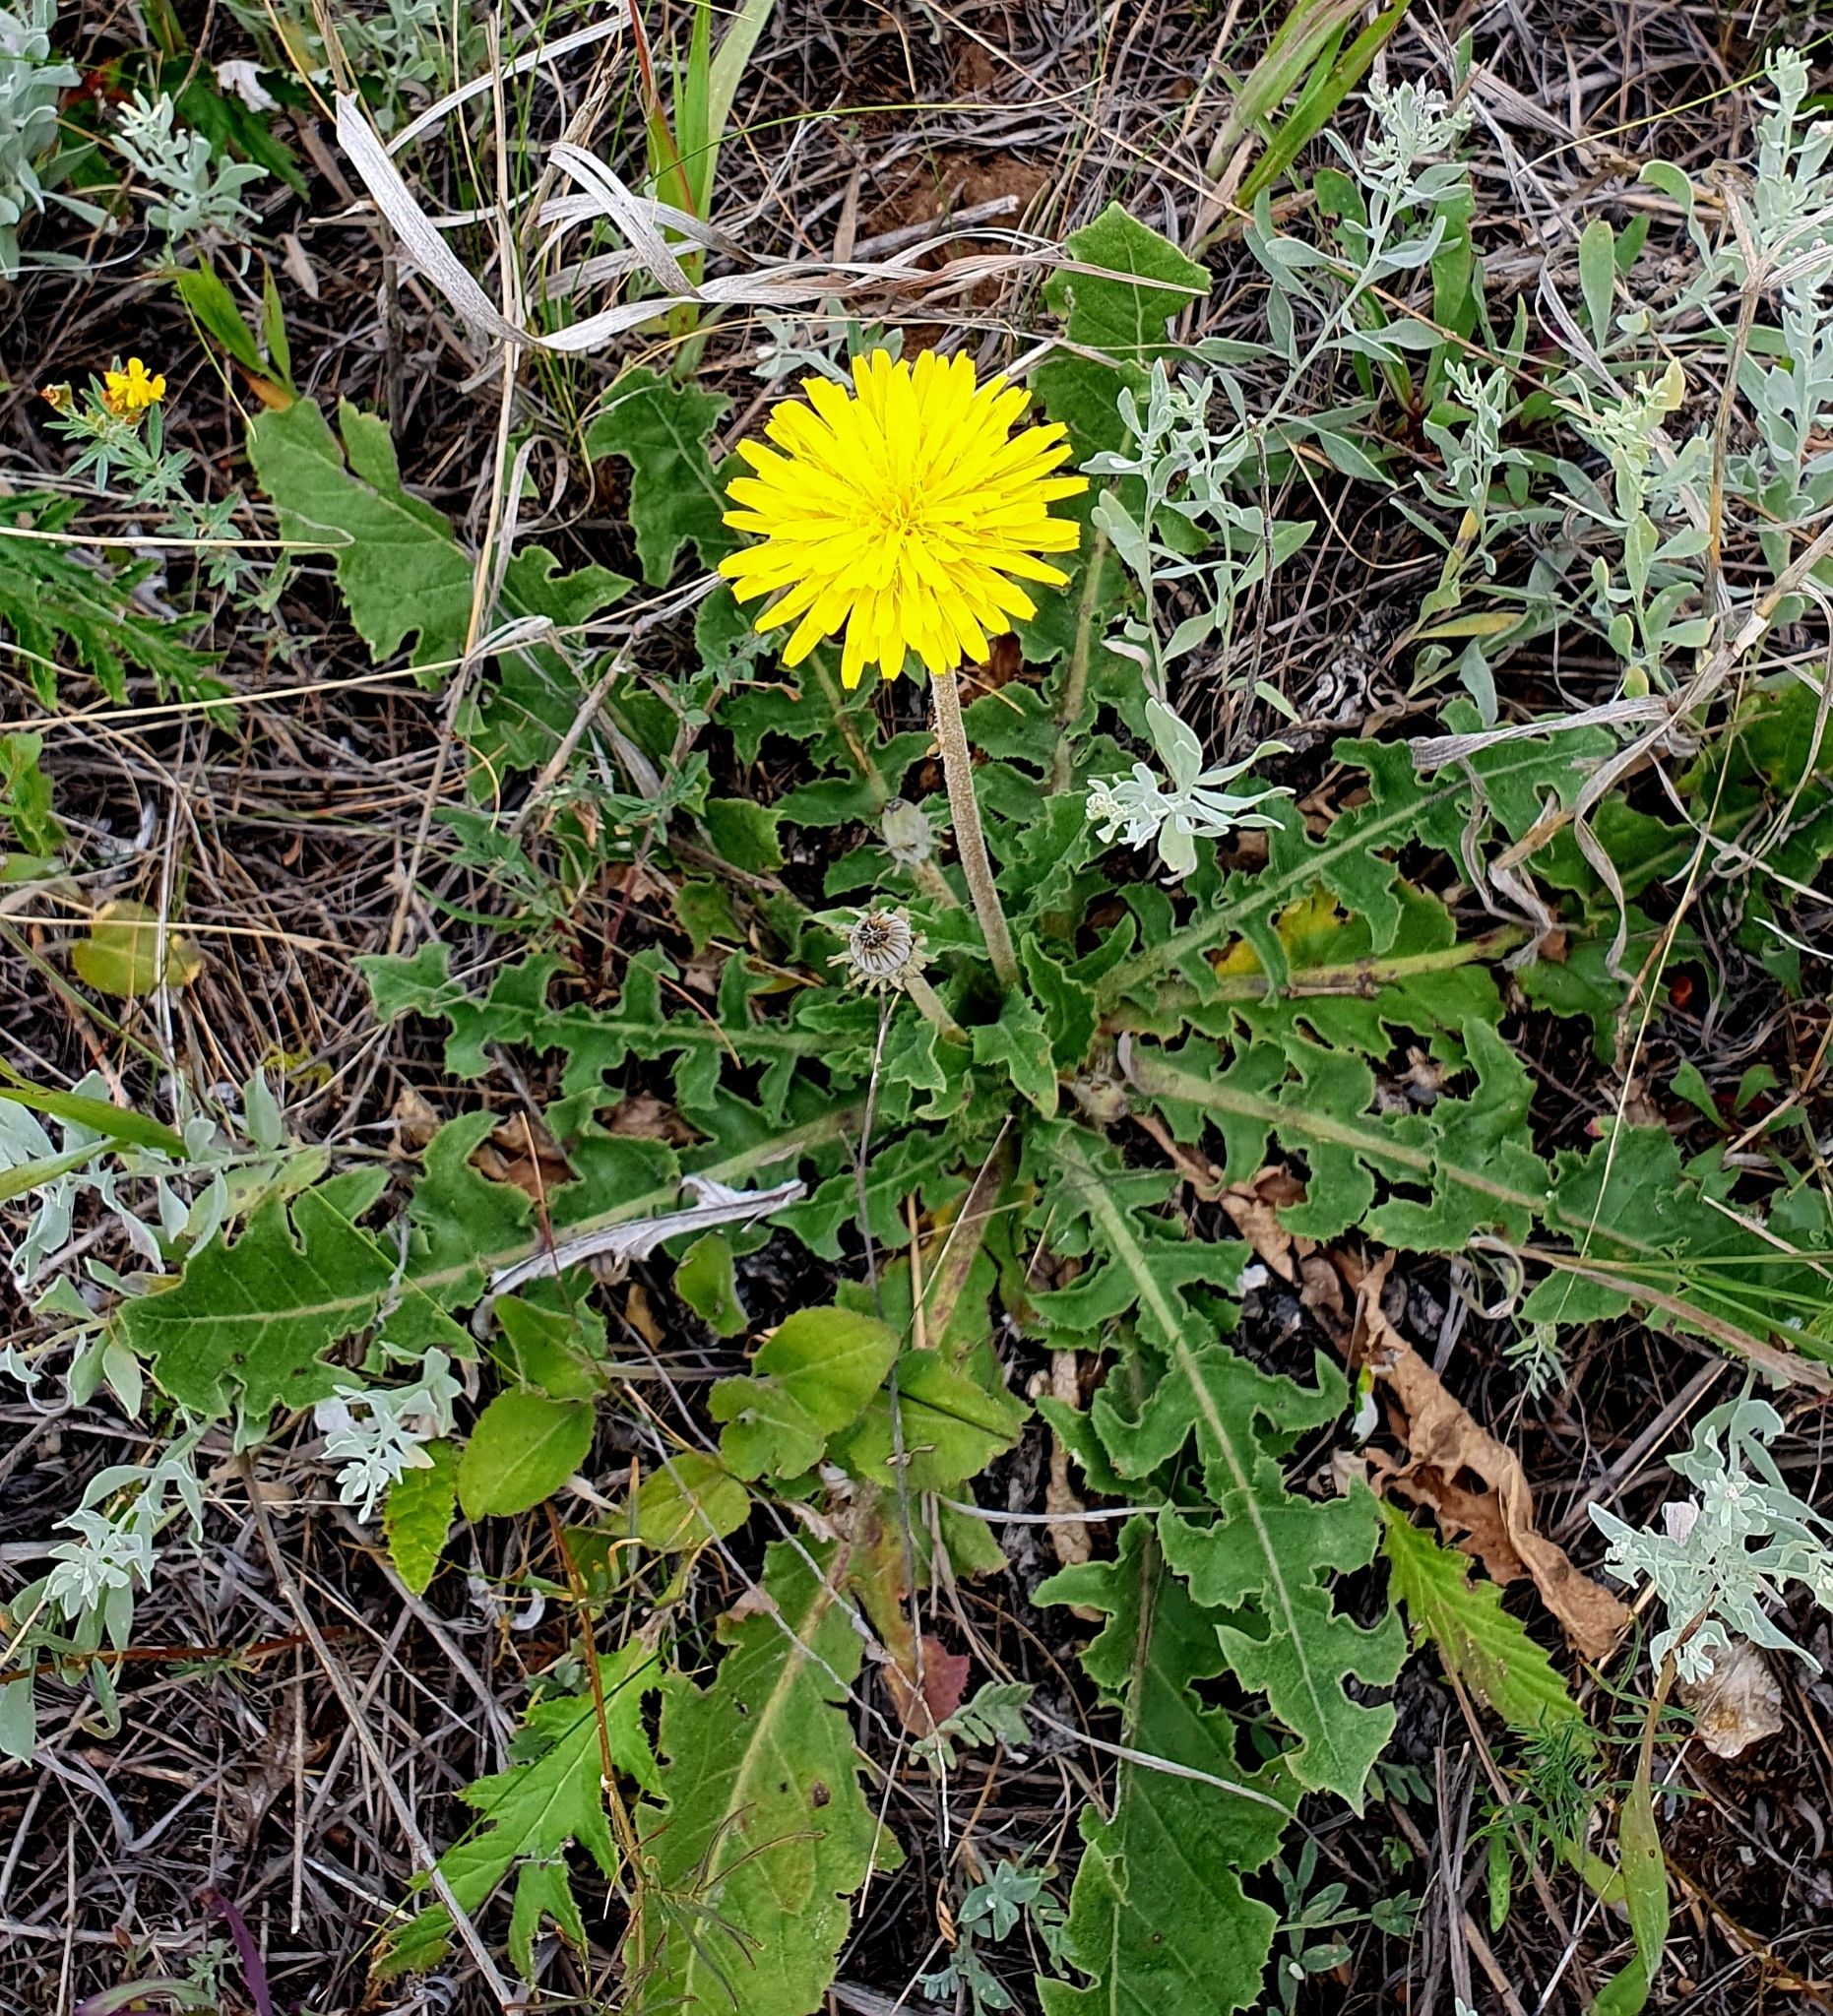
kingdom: Plantae
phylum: Tracheophyta
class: Magnoliopsida
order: Asterales
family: Asteraceae
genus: Taraxacum
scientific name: Taraxacum serotinum
